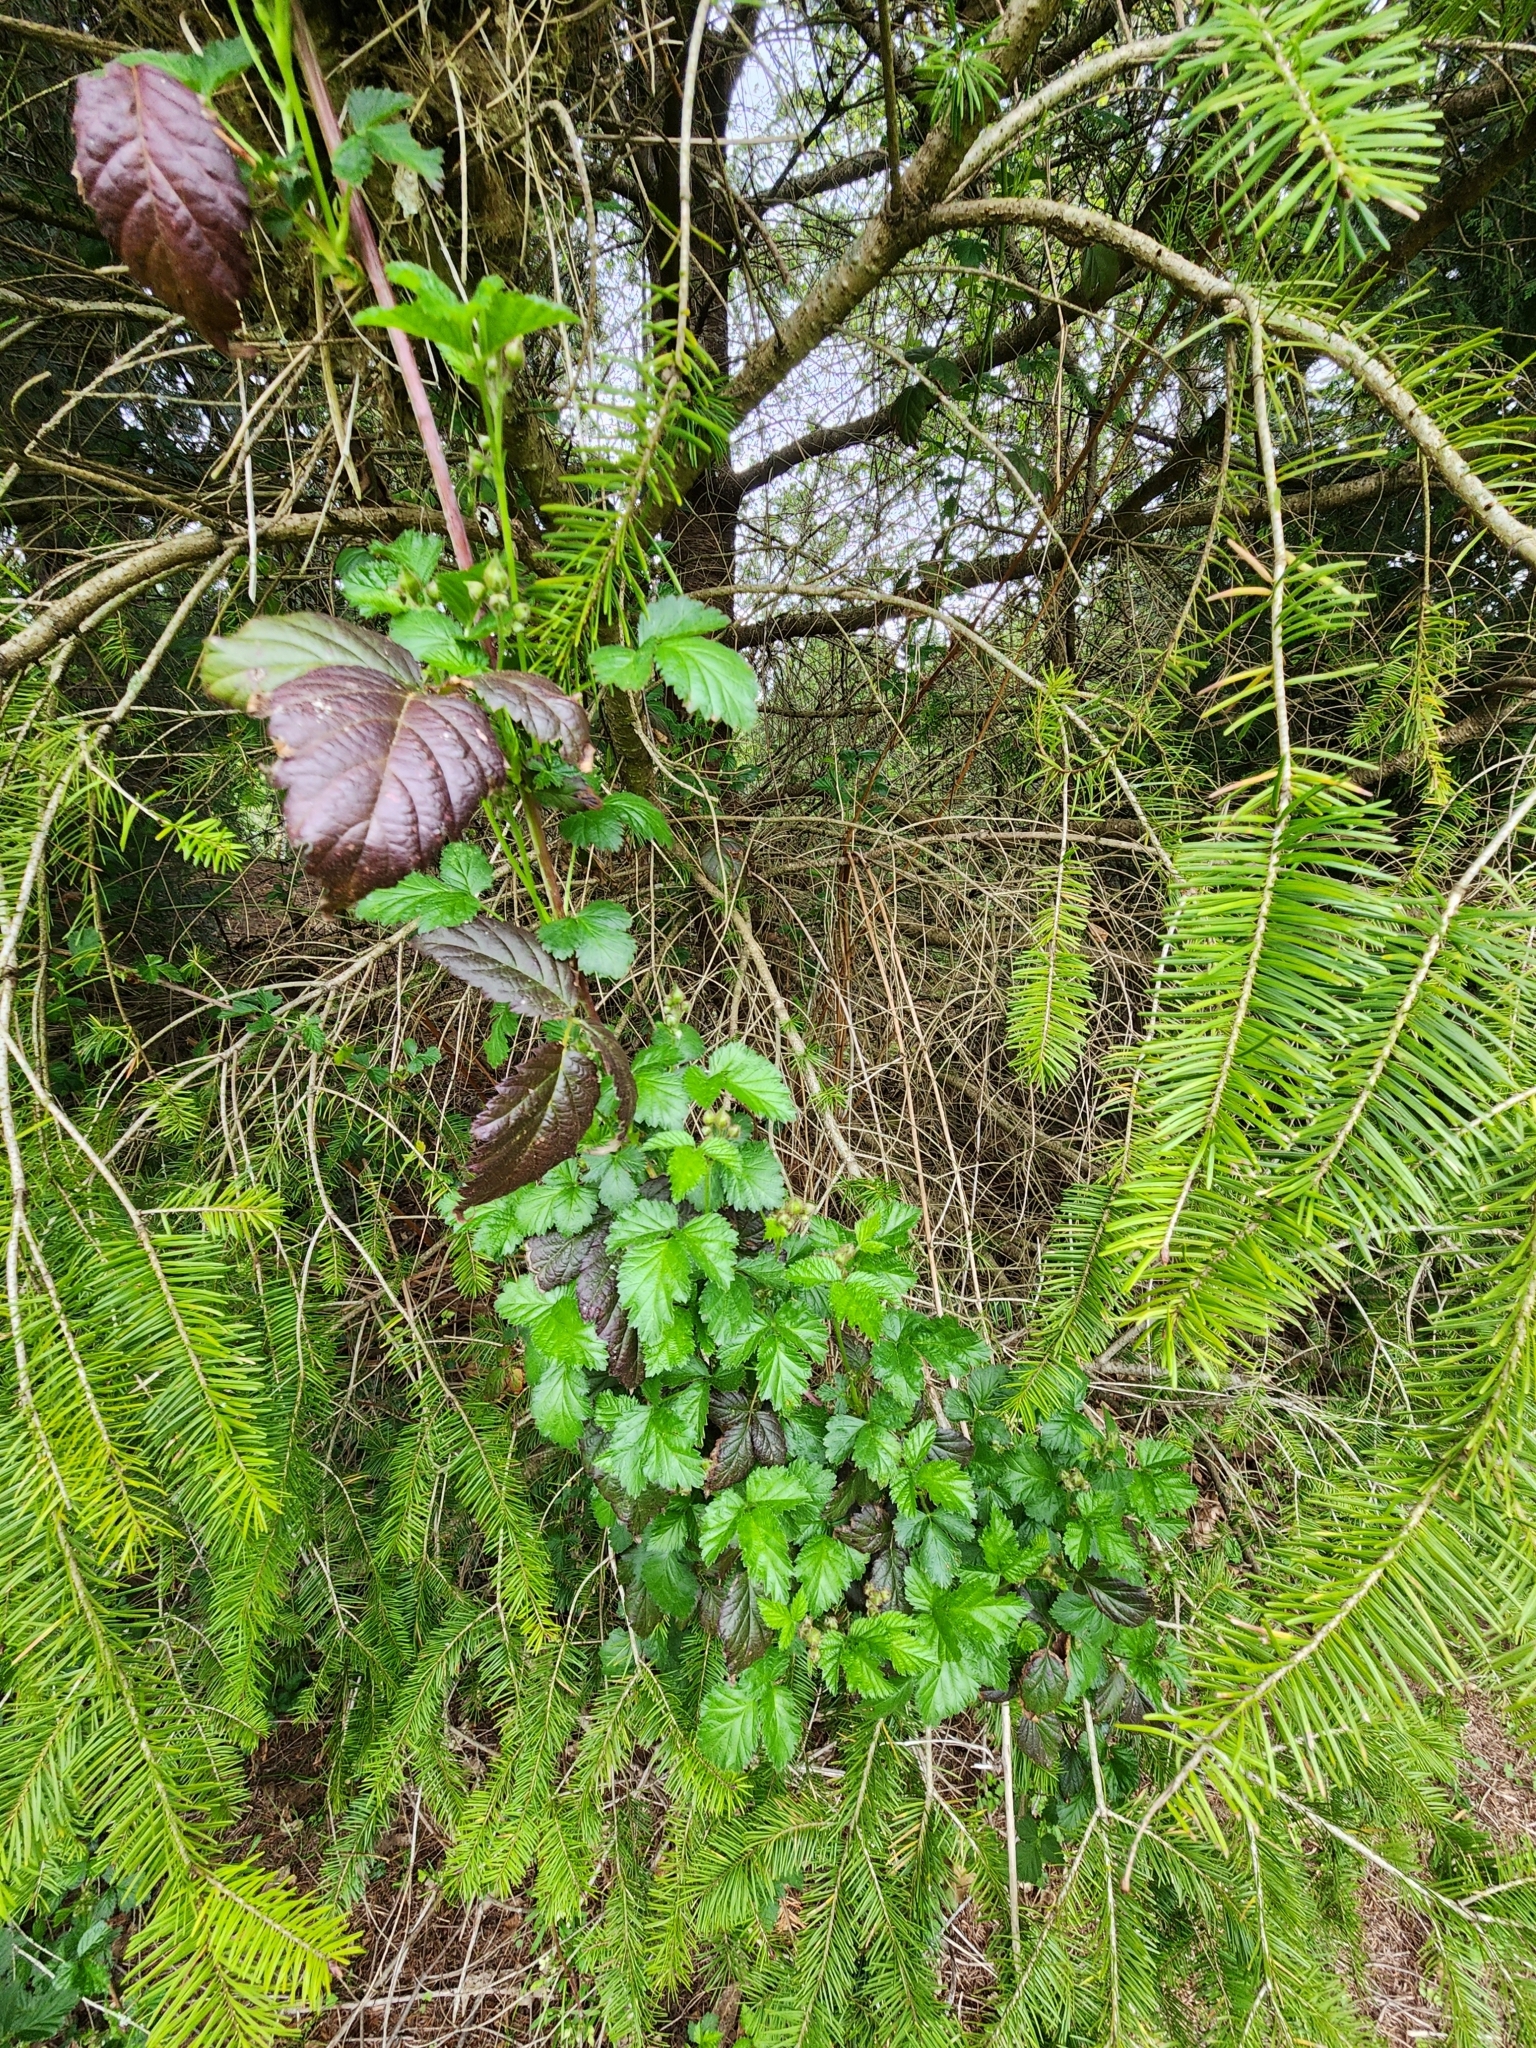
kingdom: Plantae
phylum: Tracheophyta
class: Magnoliopsida
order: Rosales
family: Rosaceae
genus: Rubus
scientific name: Rubus ursinus
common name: Pacific blackberry
